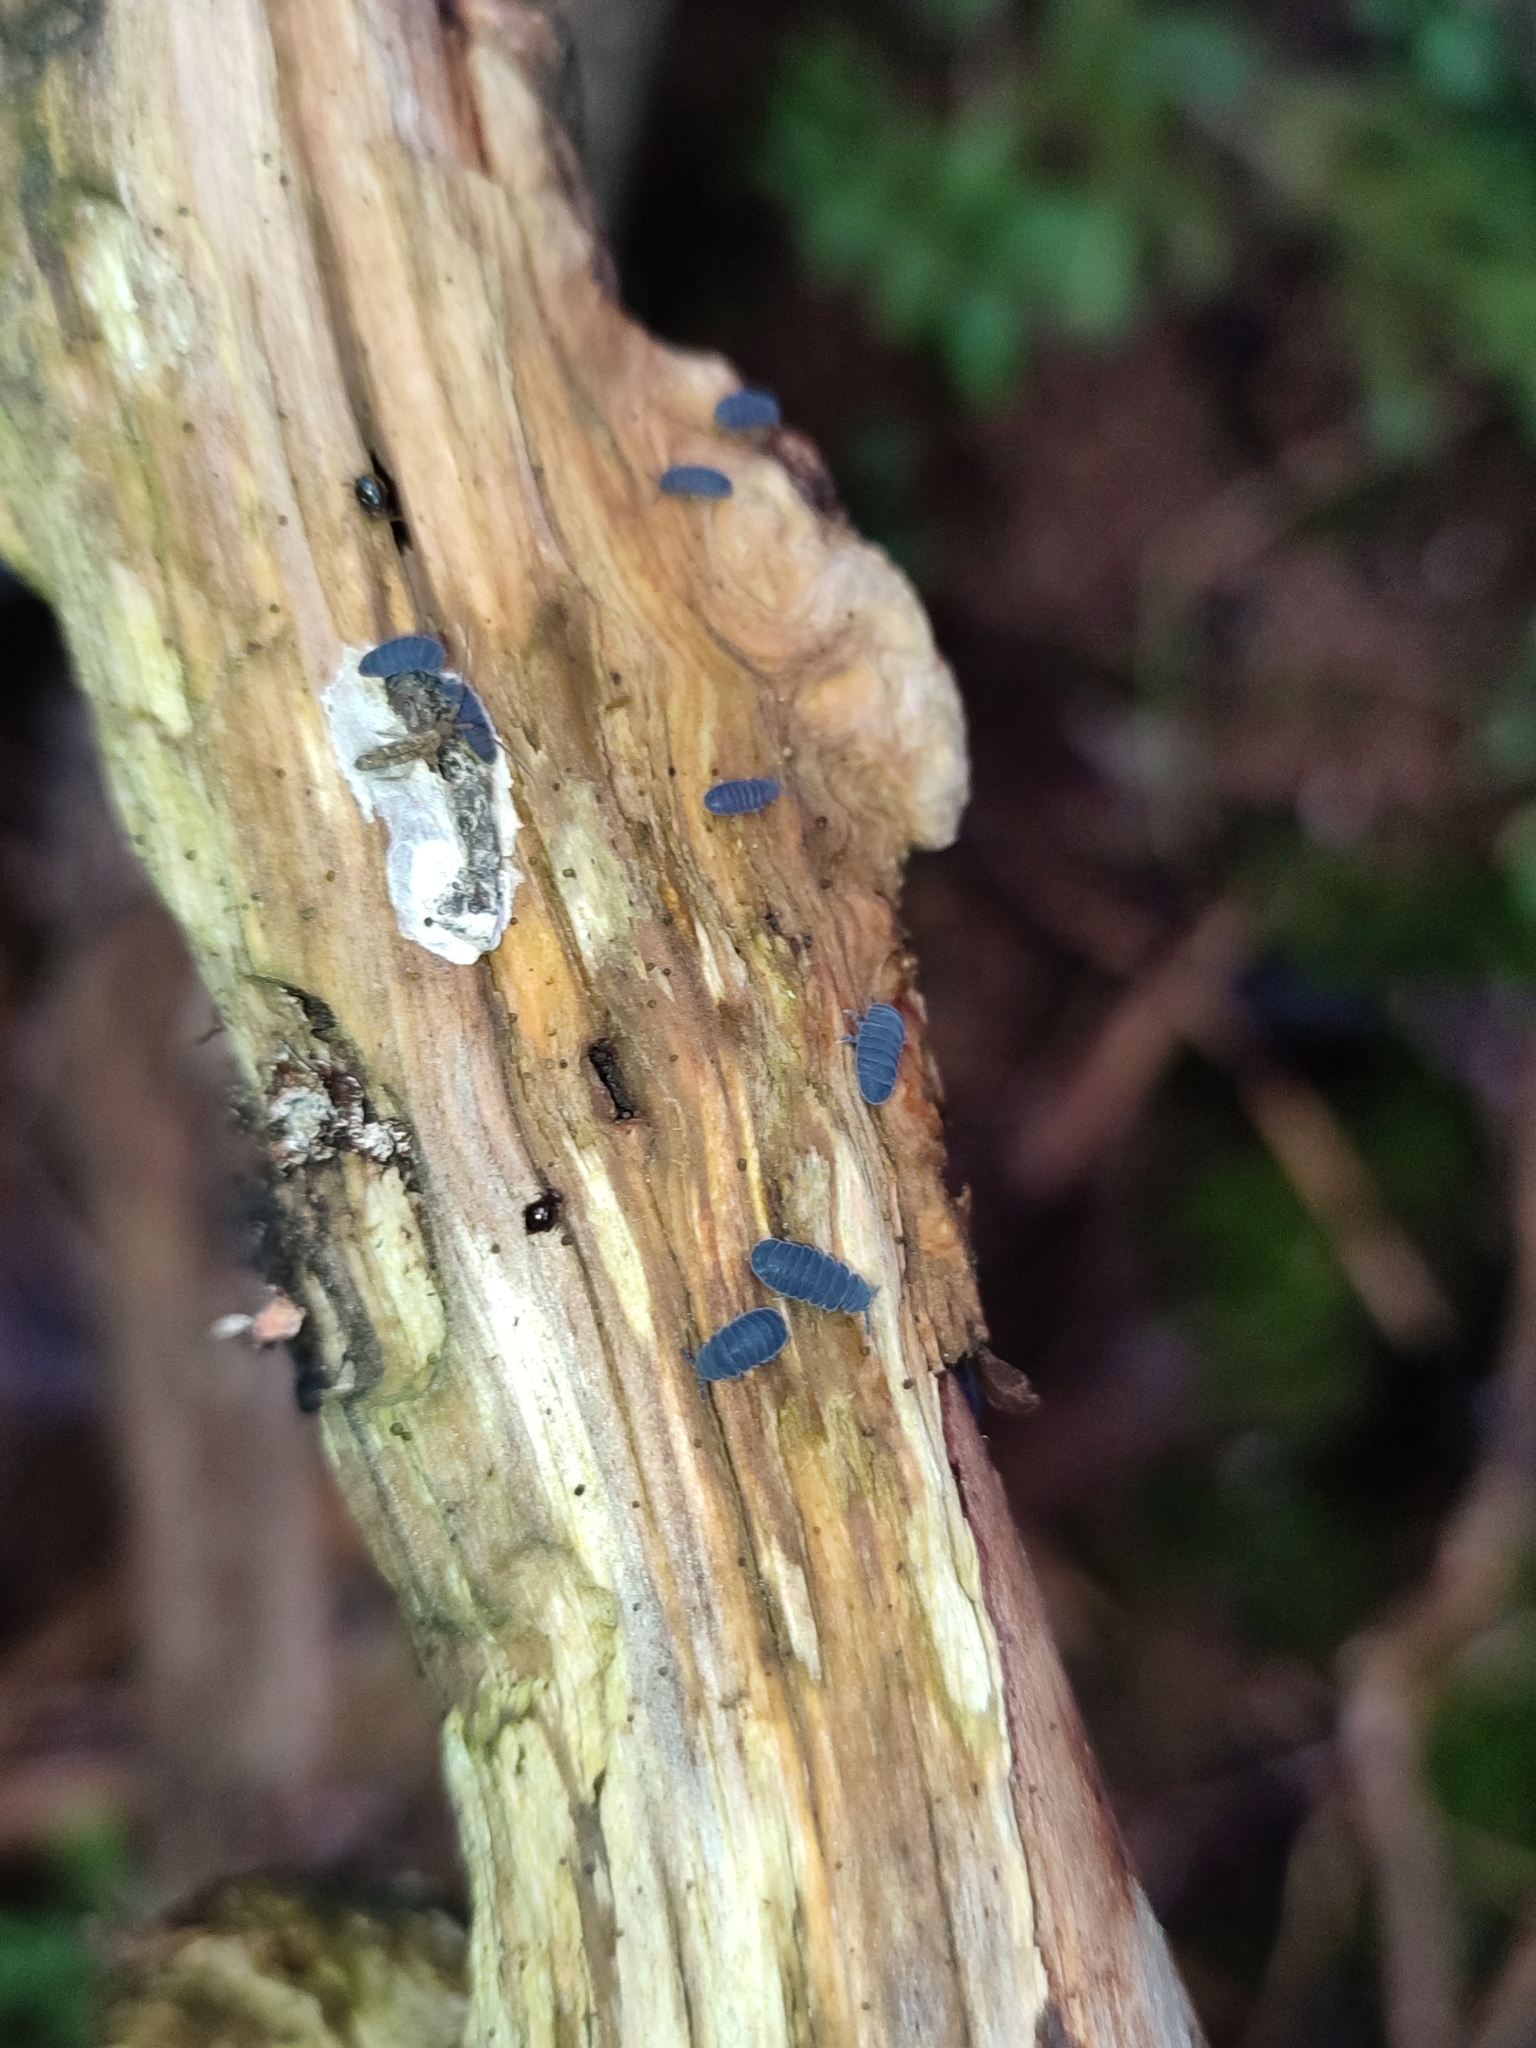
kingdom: Animalia
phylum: Arthropoda
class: Collembola
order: Poduromorpha
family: Onychiuridae
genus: Tetrodontophora
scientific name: Tetrodontophora bielanensis
